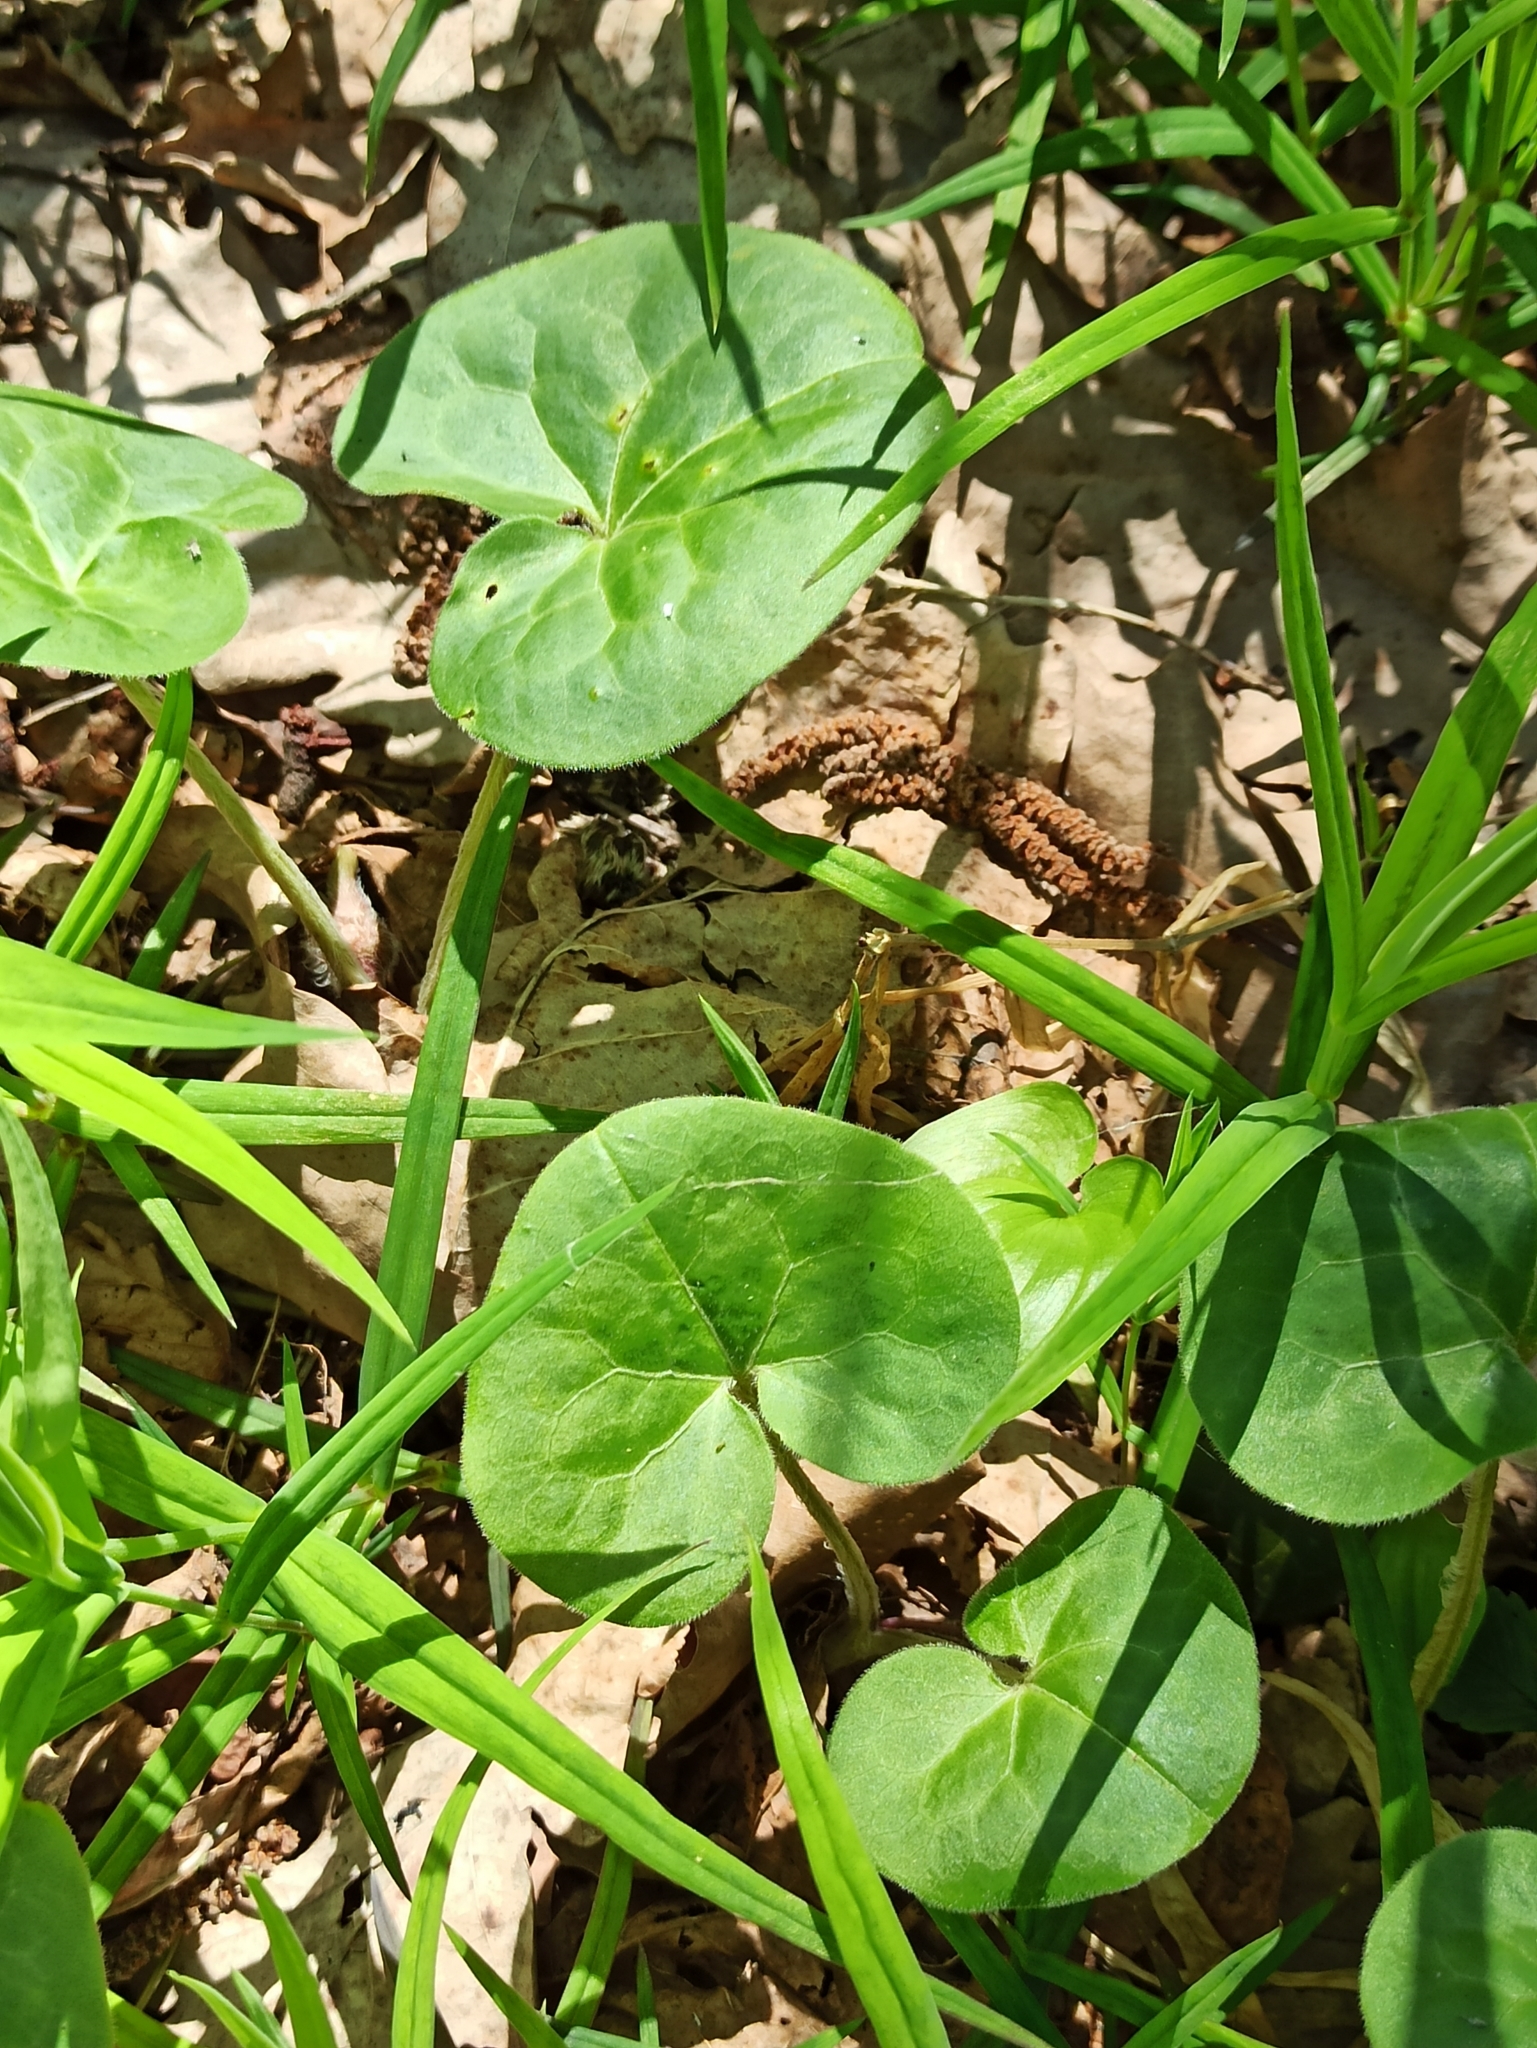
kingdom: Plantae
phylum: Tracheophyta
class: Magnoliopsida
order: Piperales
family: Aristolochiaceae
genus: Asarum
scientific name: Asarum europaeum
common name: Asarabacca
